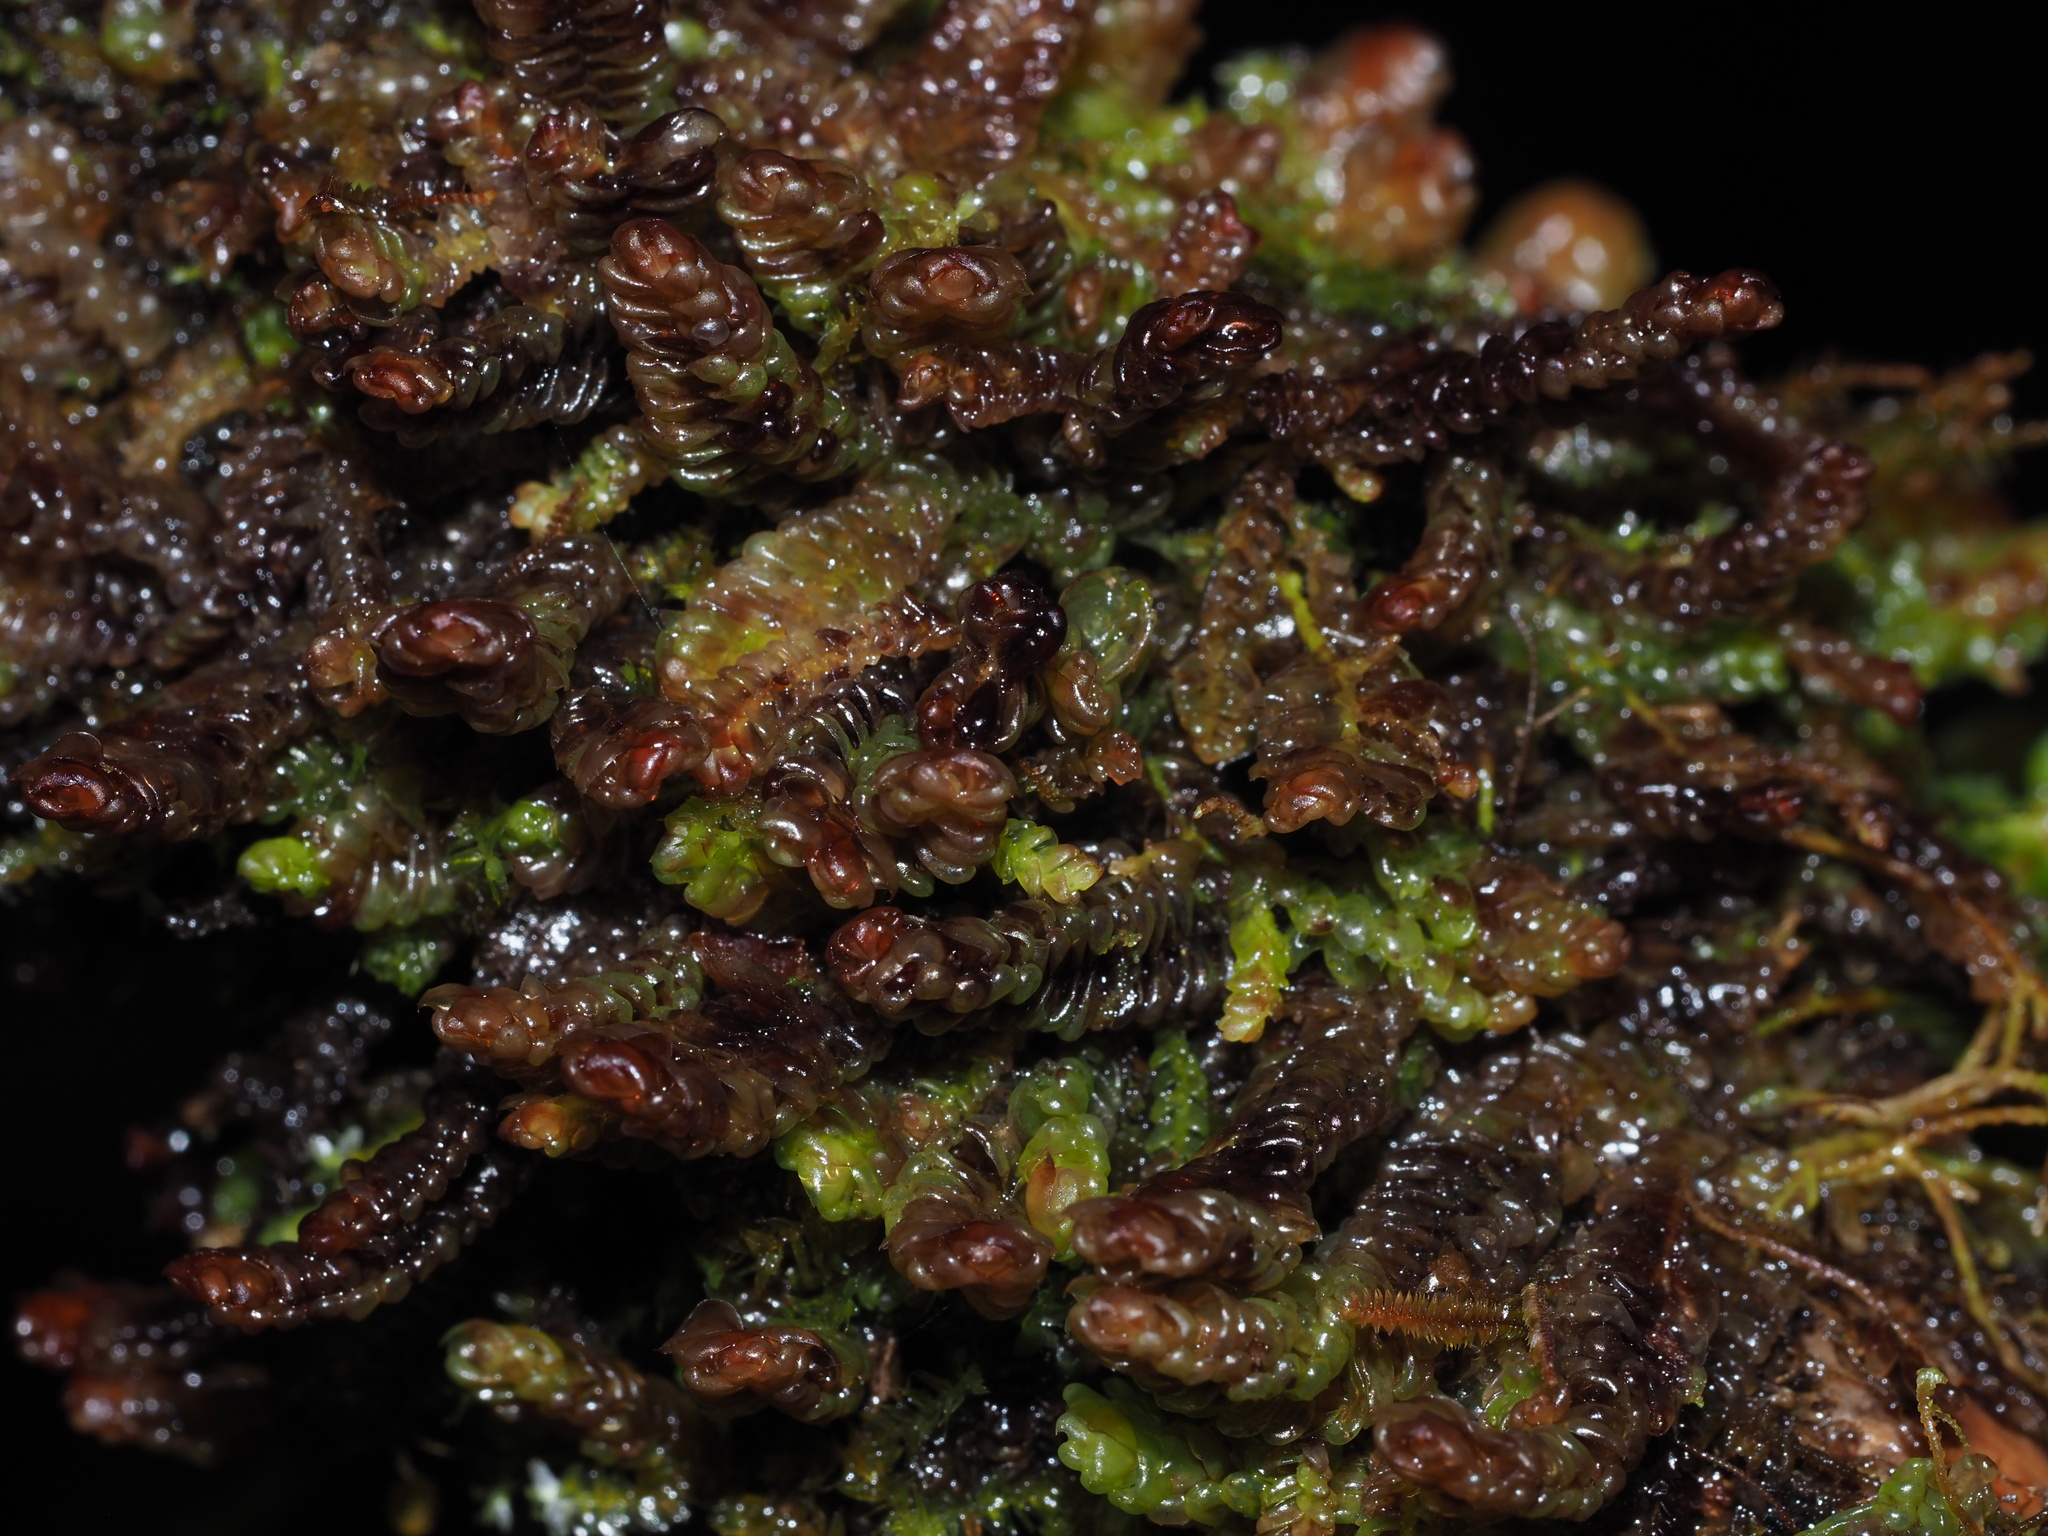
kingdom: Plantae
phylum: Marchantiophyta
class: Jungermanniopsida
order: Pleuroziales
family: Pleuroziaceae
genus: Pleurozia
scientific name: Pleurozia conchifolia
